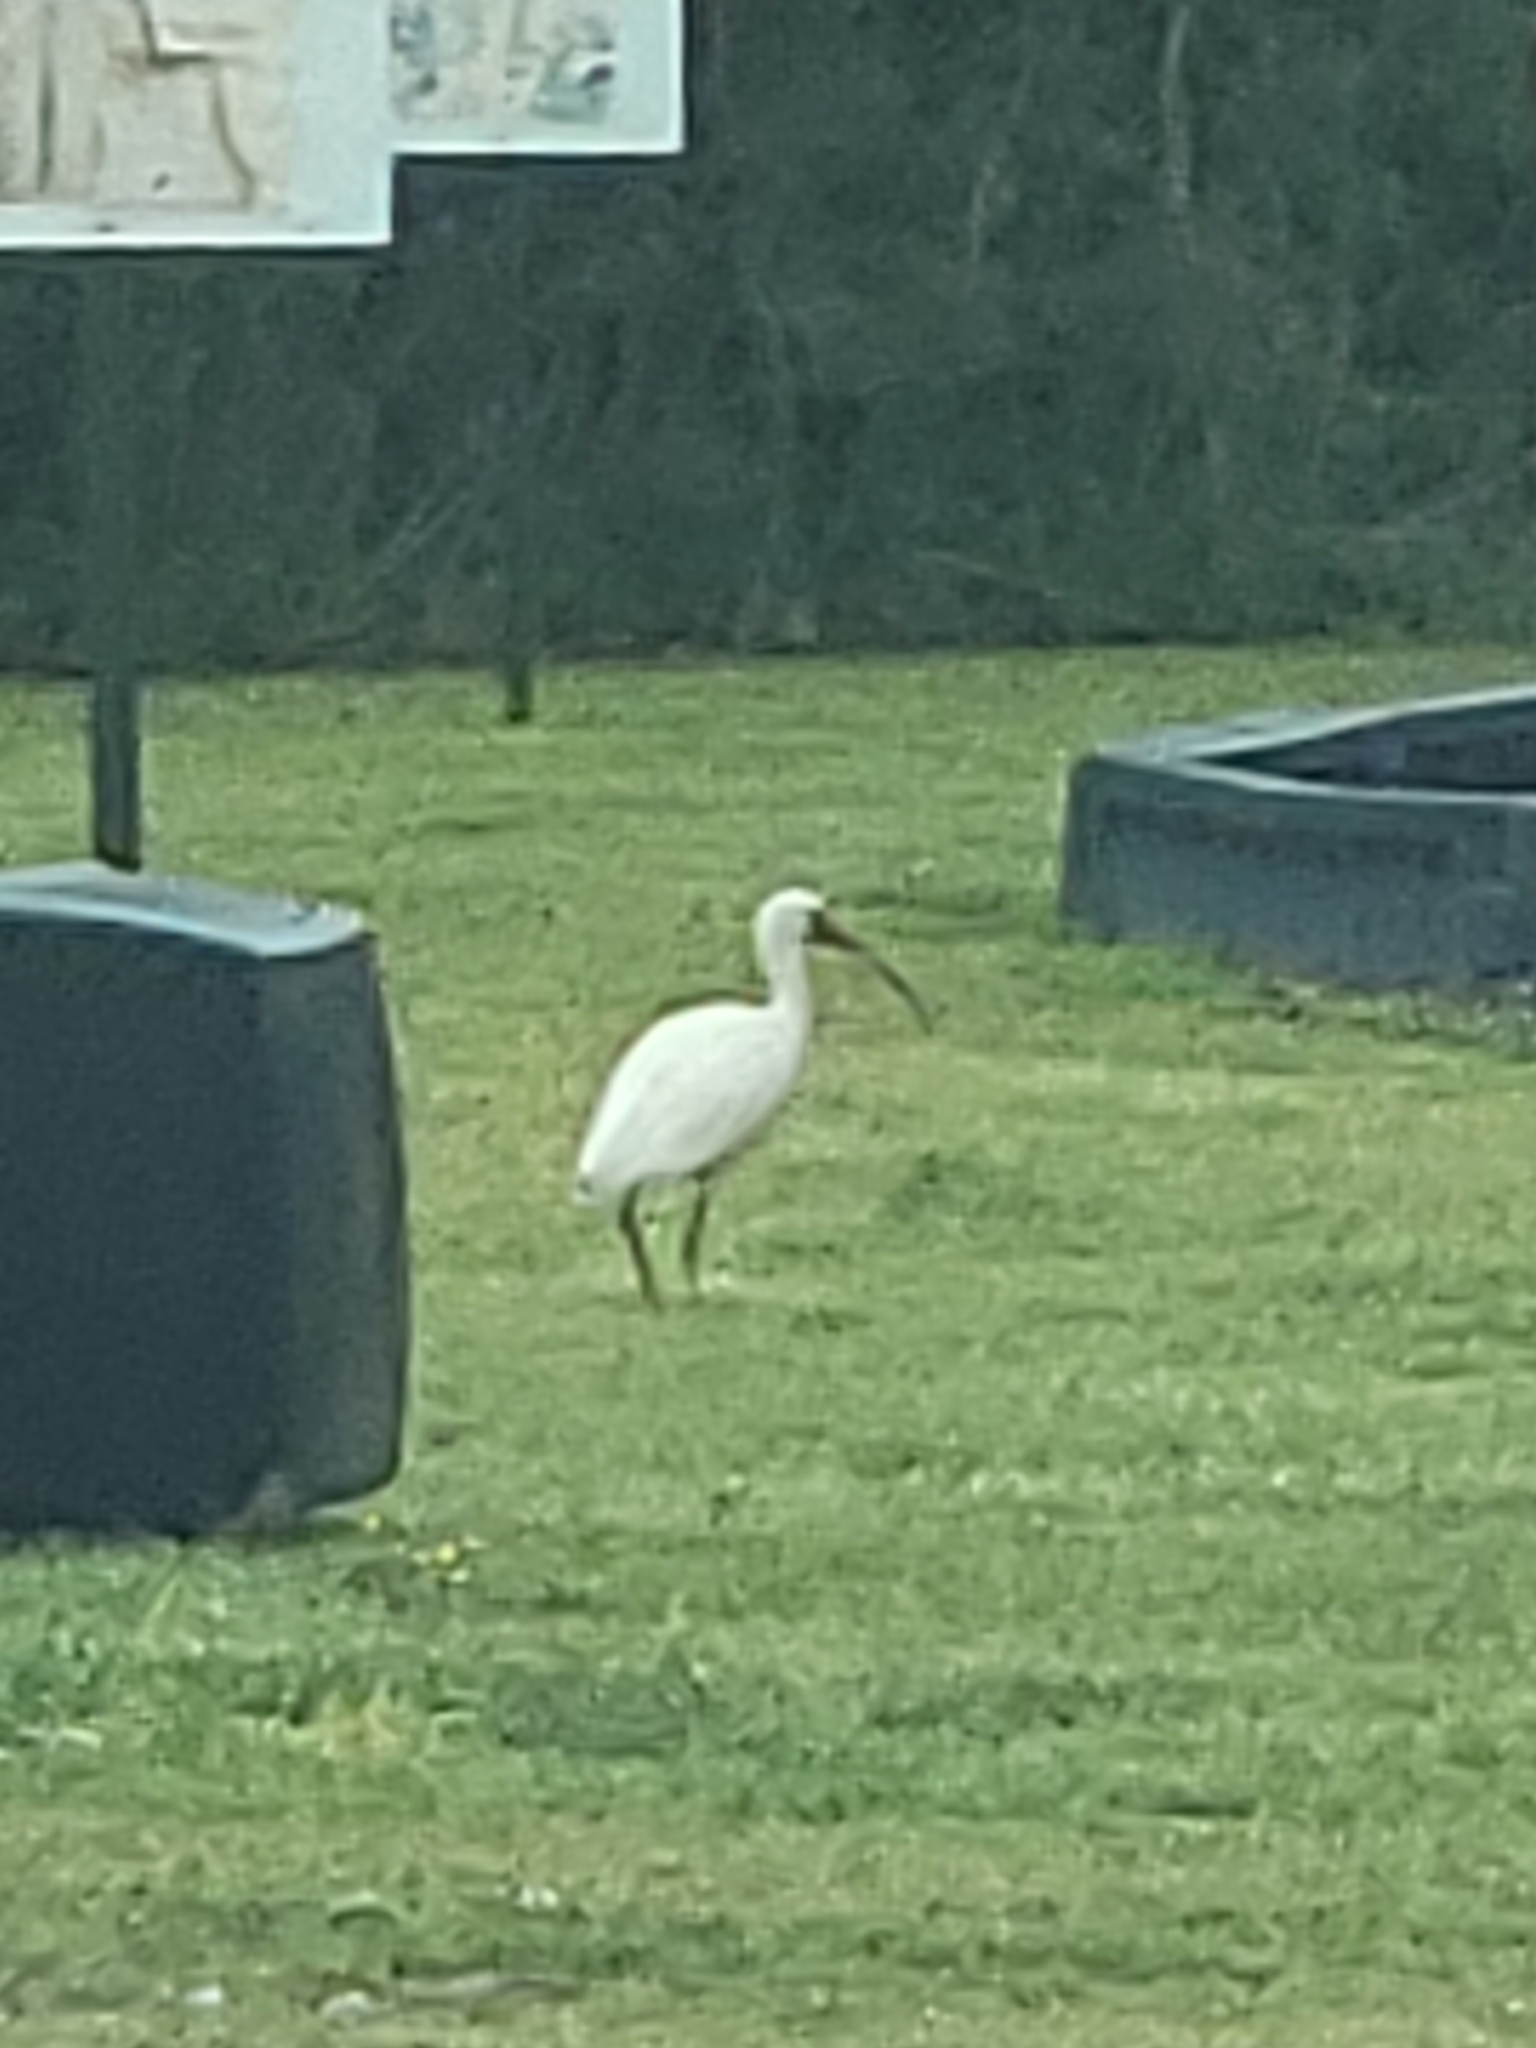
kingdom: Animalia
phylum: Chordata
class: Aves
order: Pelecaniformes
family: Threskiornithidae
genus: Eudocimus
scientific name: Eudocimus albus
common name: White ibis
